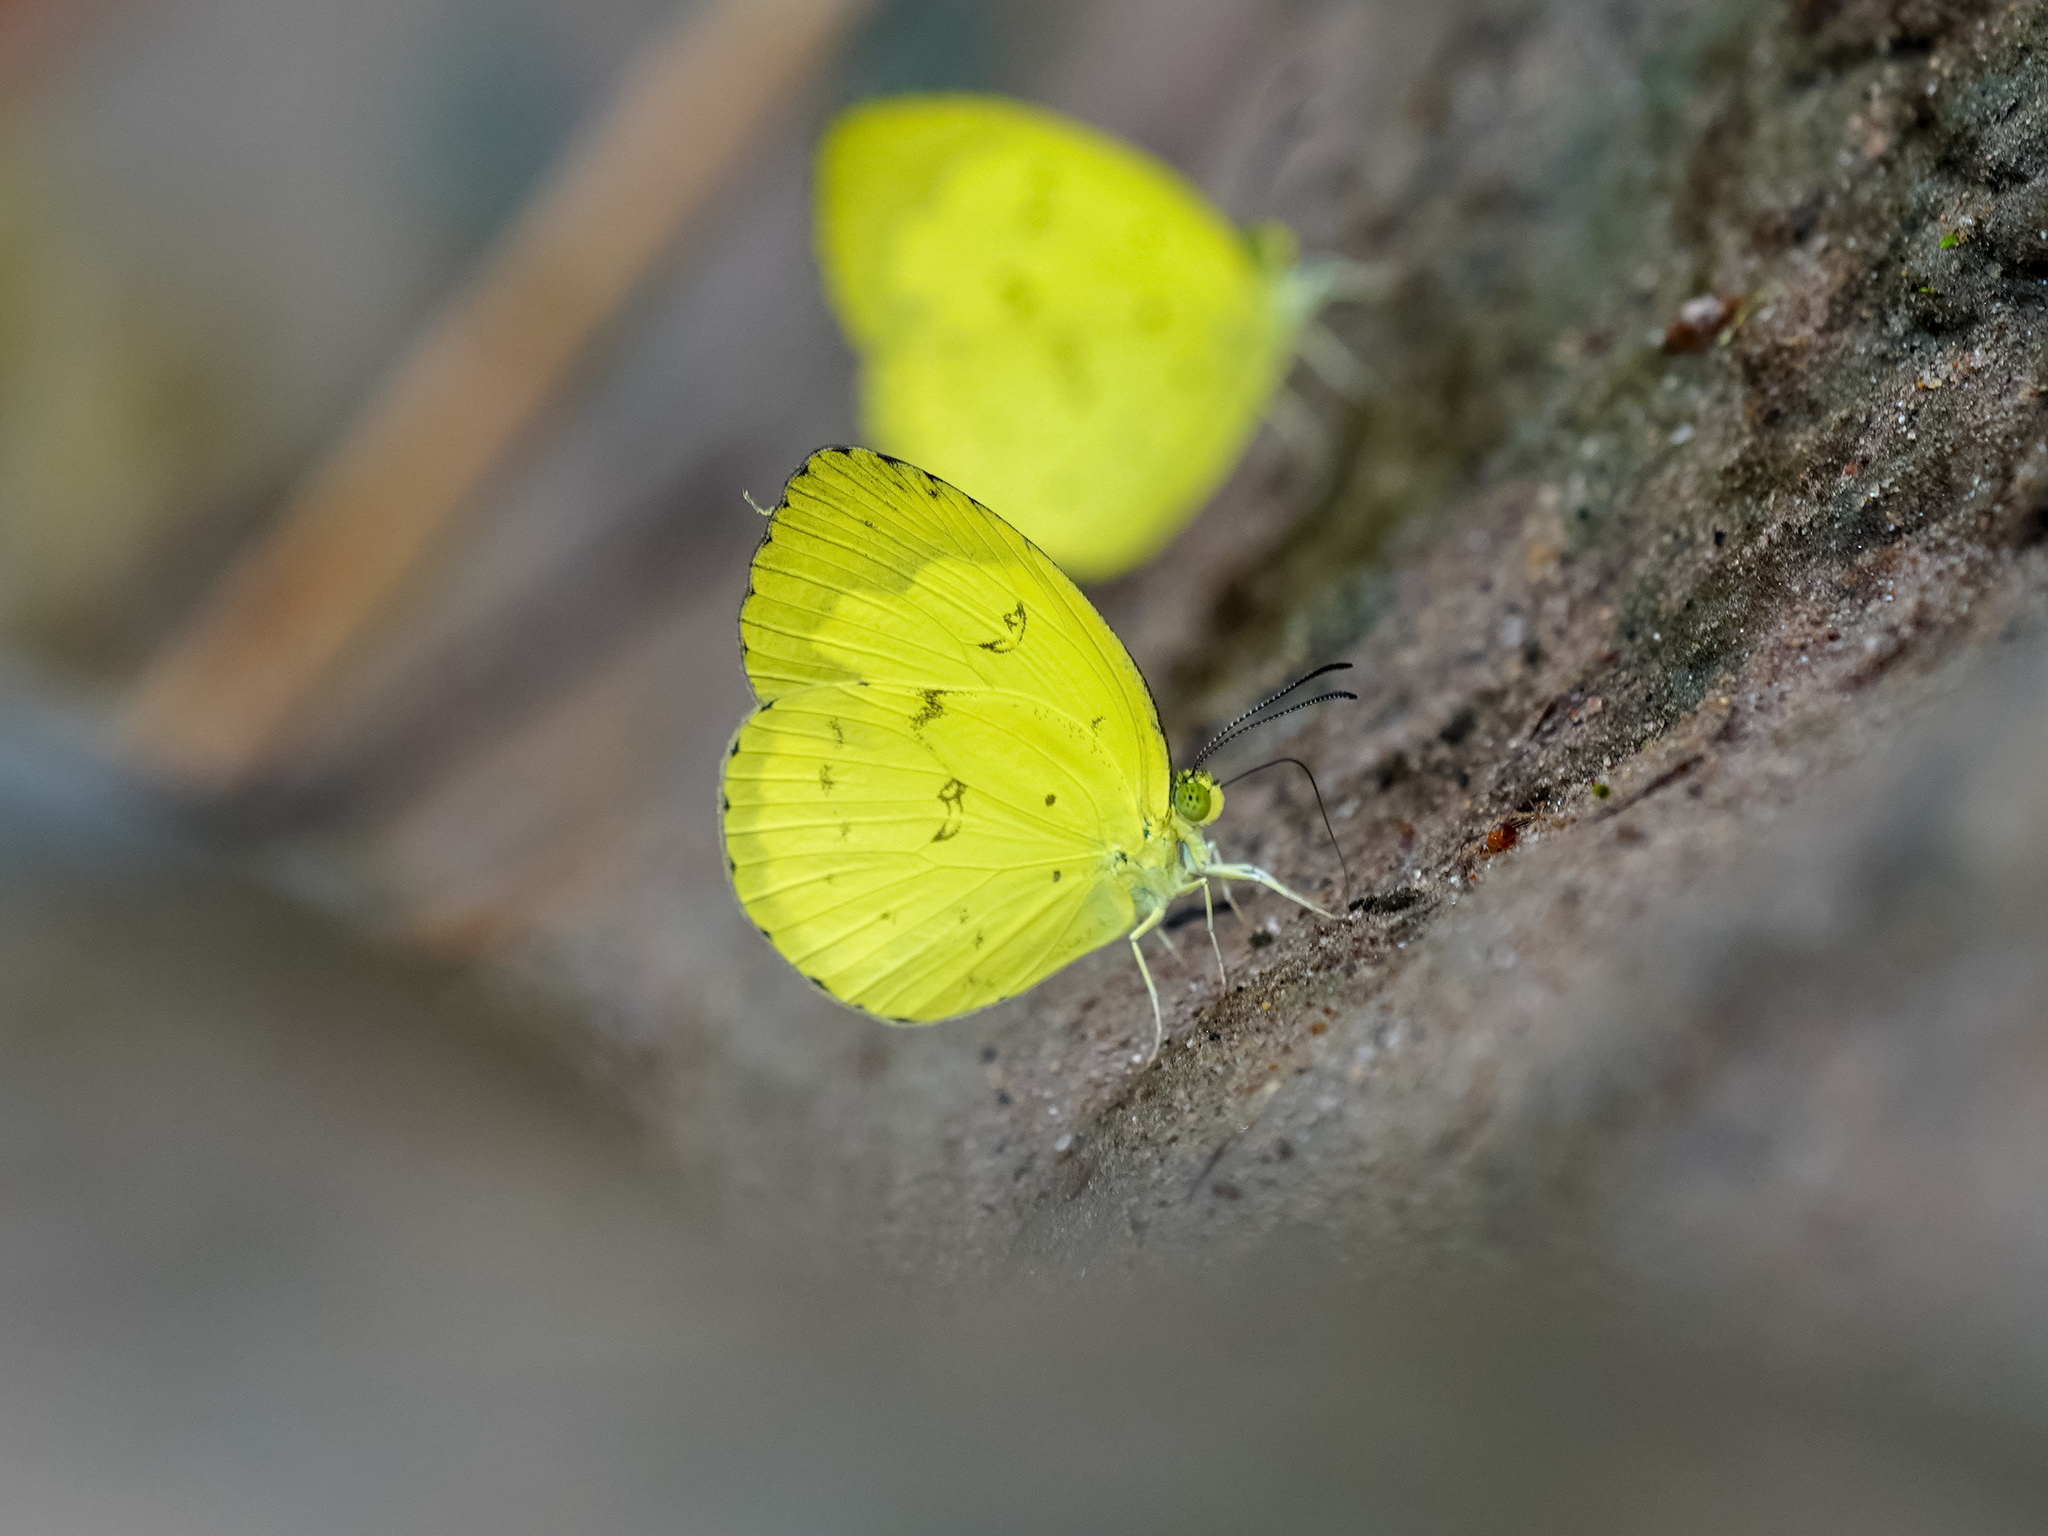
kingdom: Animalia
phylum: Arthropoda
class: Insecta
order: Lepidoptera
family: Pieridae
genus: Eurema
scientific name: Eurema lacteola
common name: Scarce grass yellow
